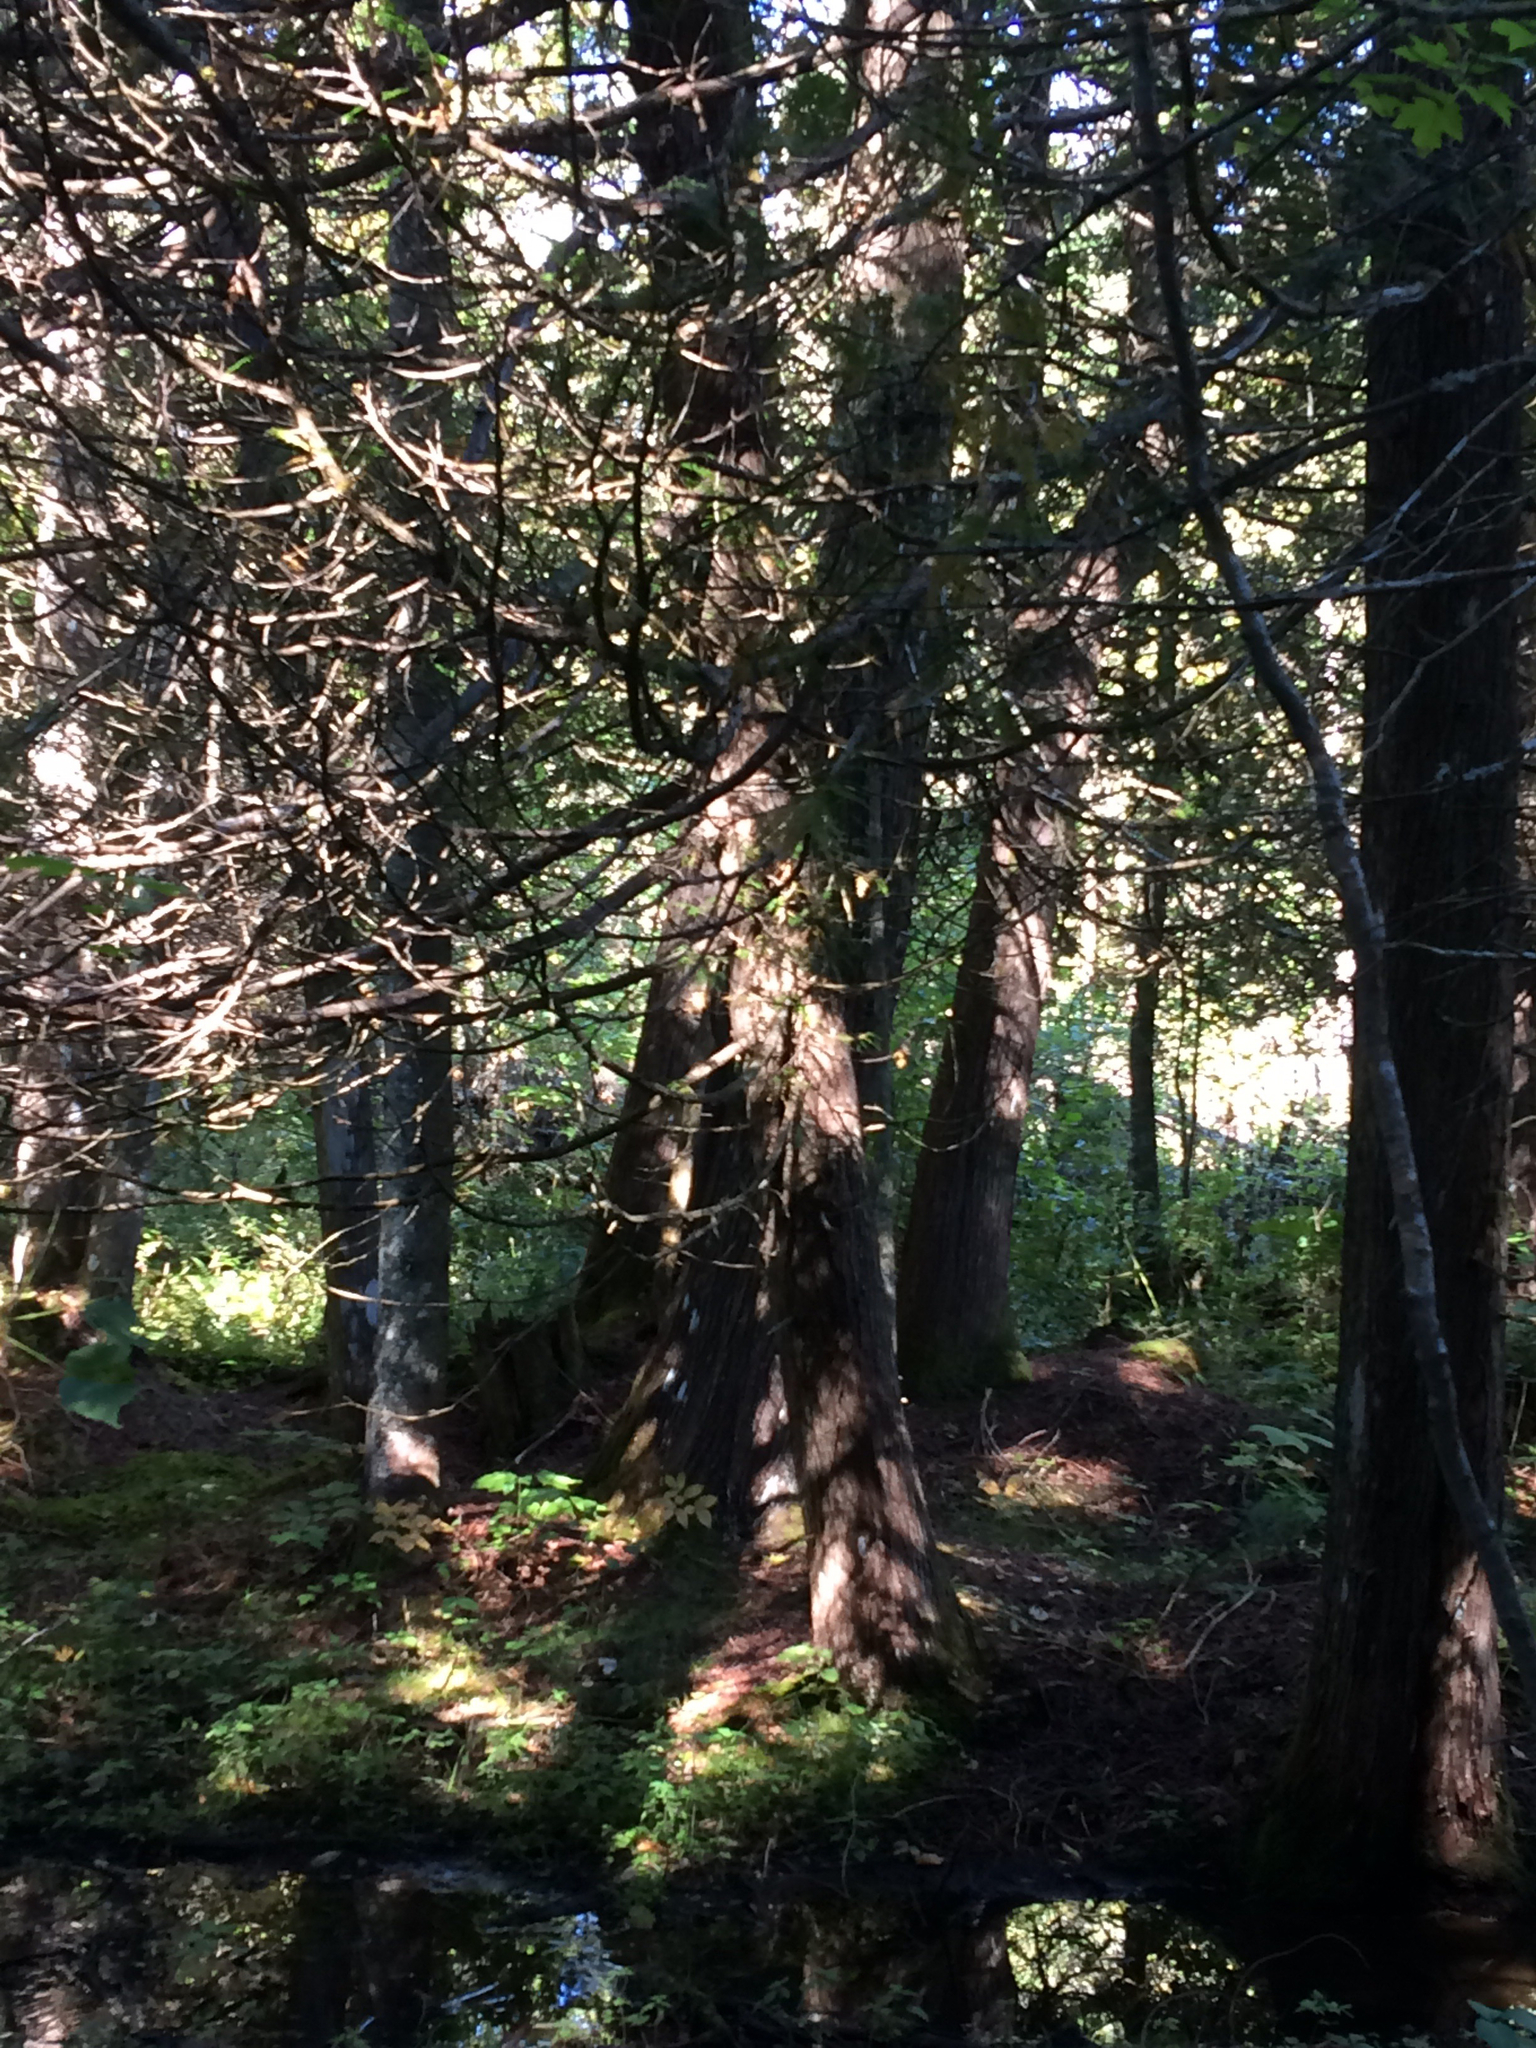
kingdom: Plantae
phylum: Tracheophyta
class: Pinopsida
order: Pinales
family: Cupressaceae
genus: Thuja
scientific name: Thuja occidentalis
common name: Northern white-cedar
